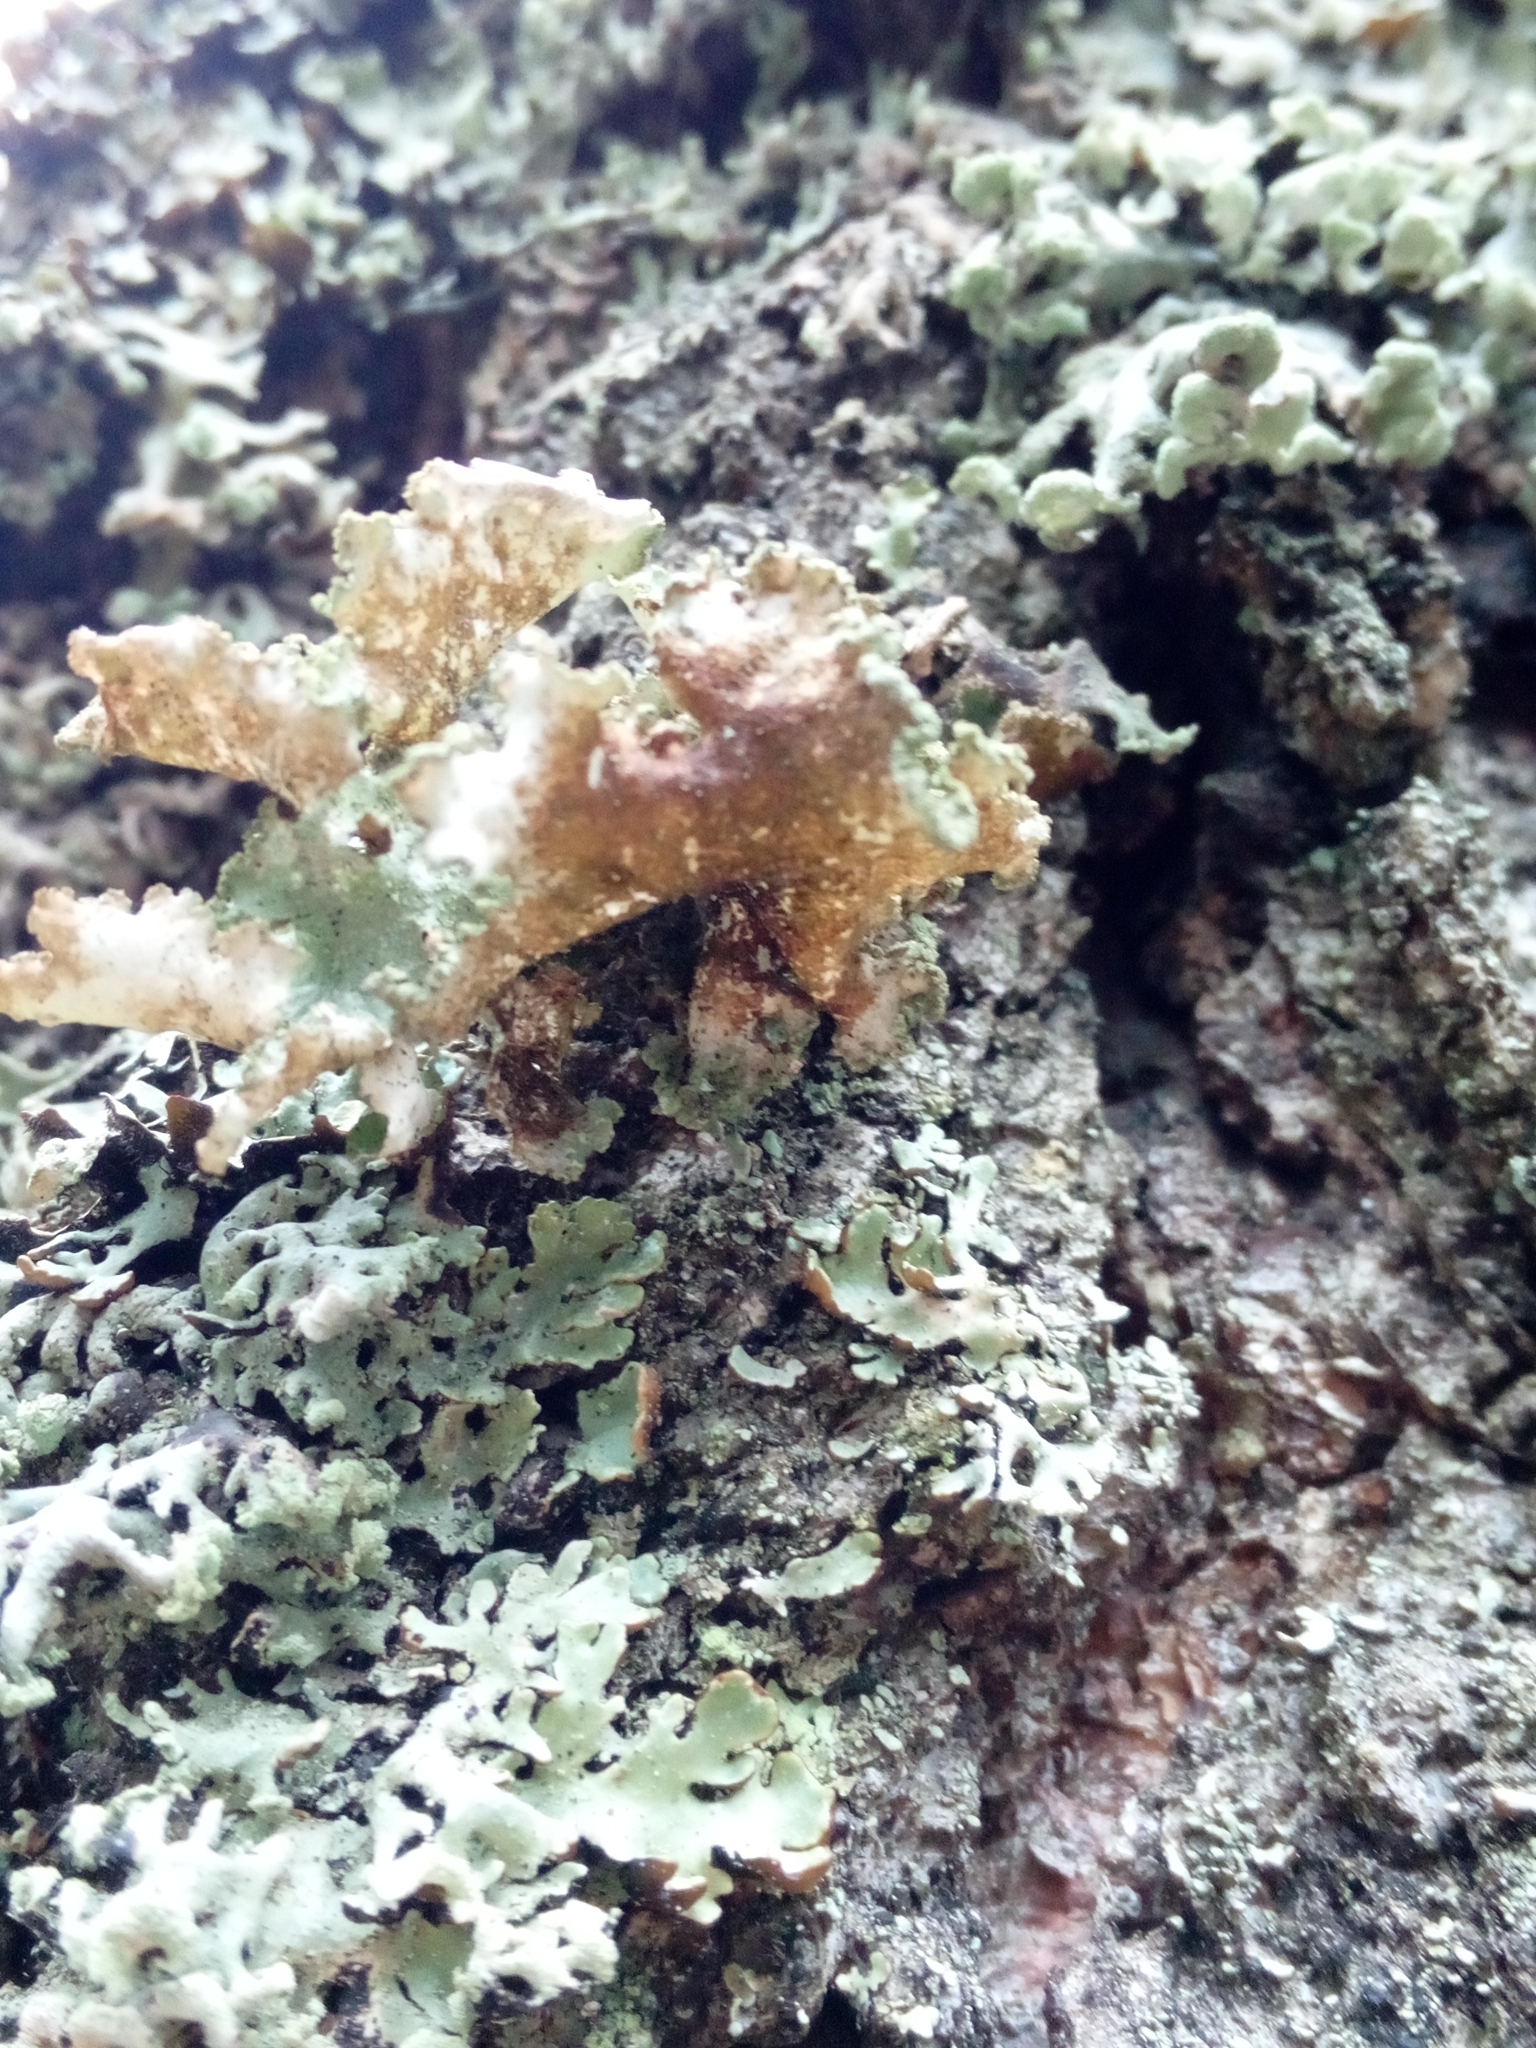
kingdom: Fungi
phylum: Ascomycota
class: Lecanoromycetes
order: Lecanorales
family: Parmeliaceae
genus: Platismatia
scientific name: Platismatia glauca
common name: Varied rag lichen
